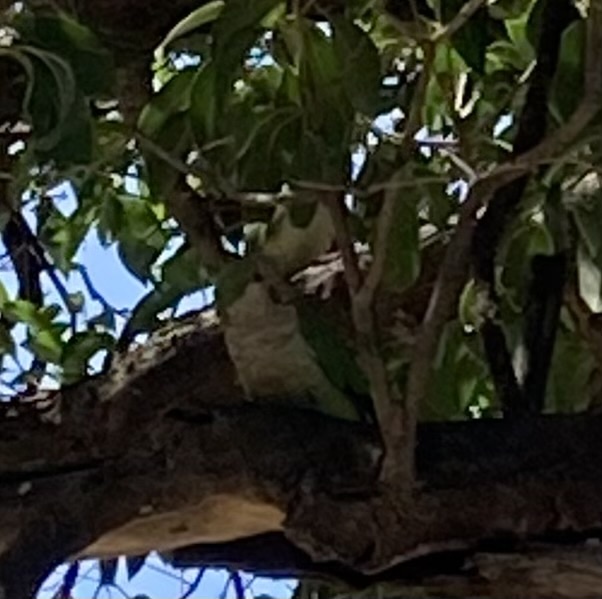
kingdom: Animalia
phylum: Chordata
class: Aves
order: Psittaciformes
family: Psittacidae
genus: Myiopsitta
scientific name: Myiopsitta monachus
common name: Monk parakeet
